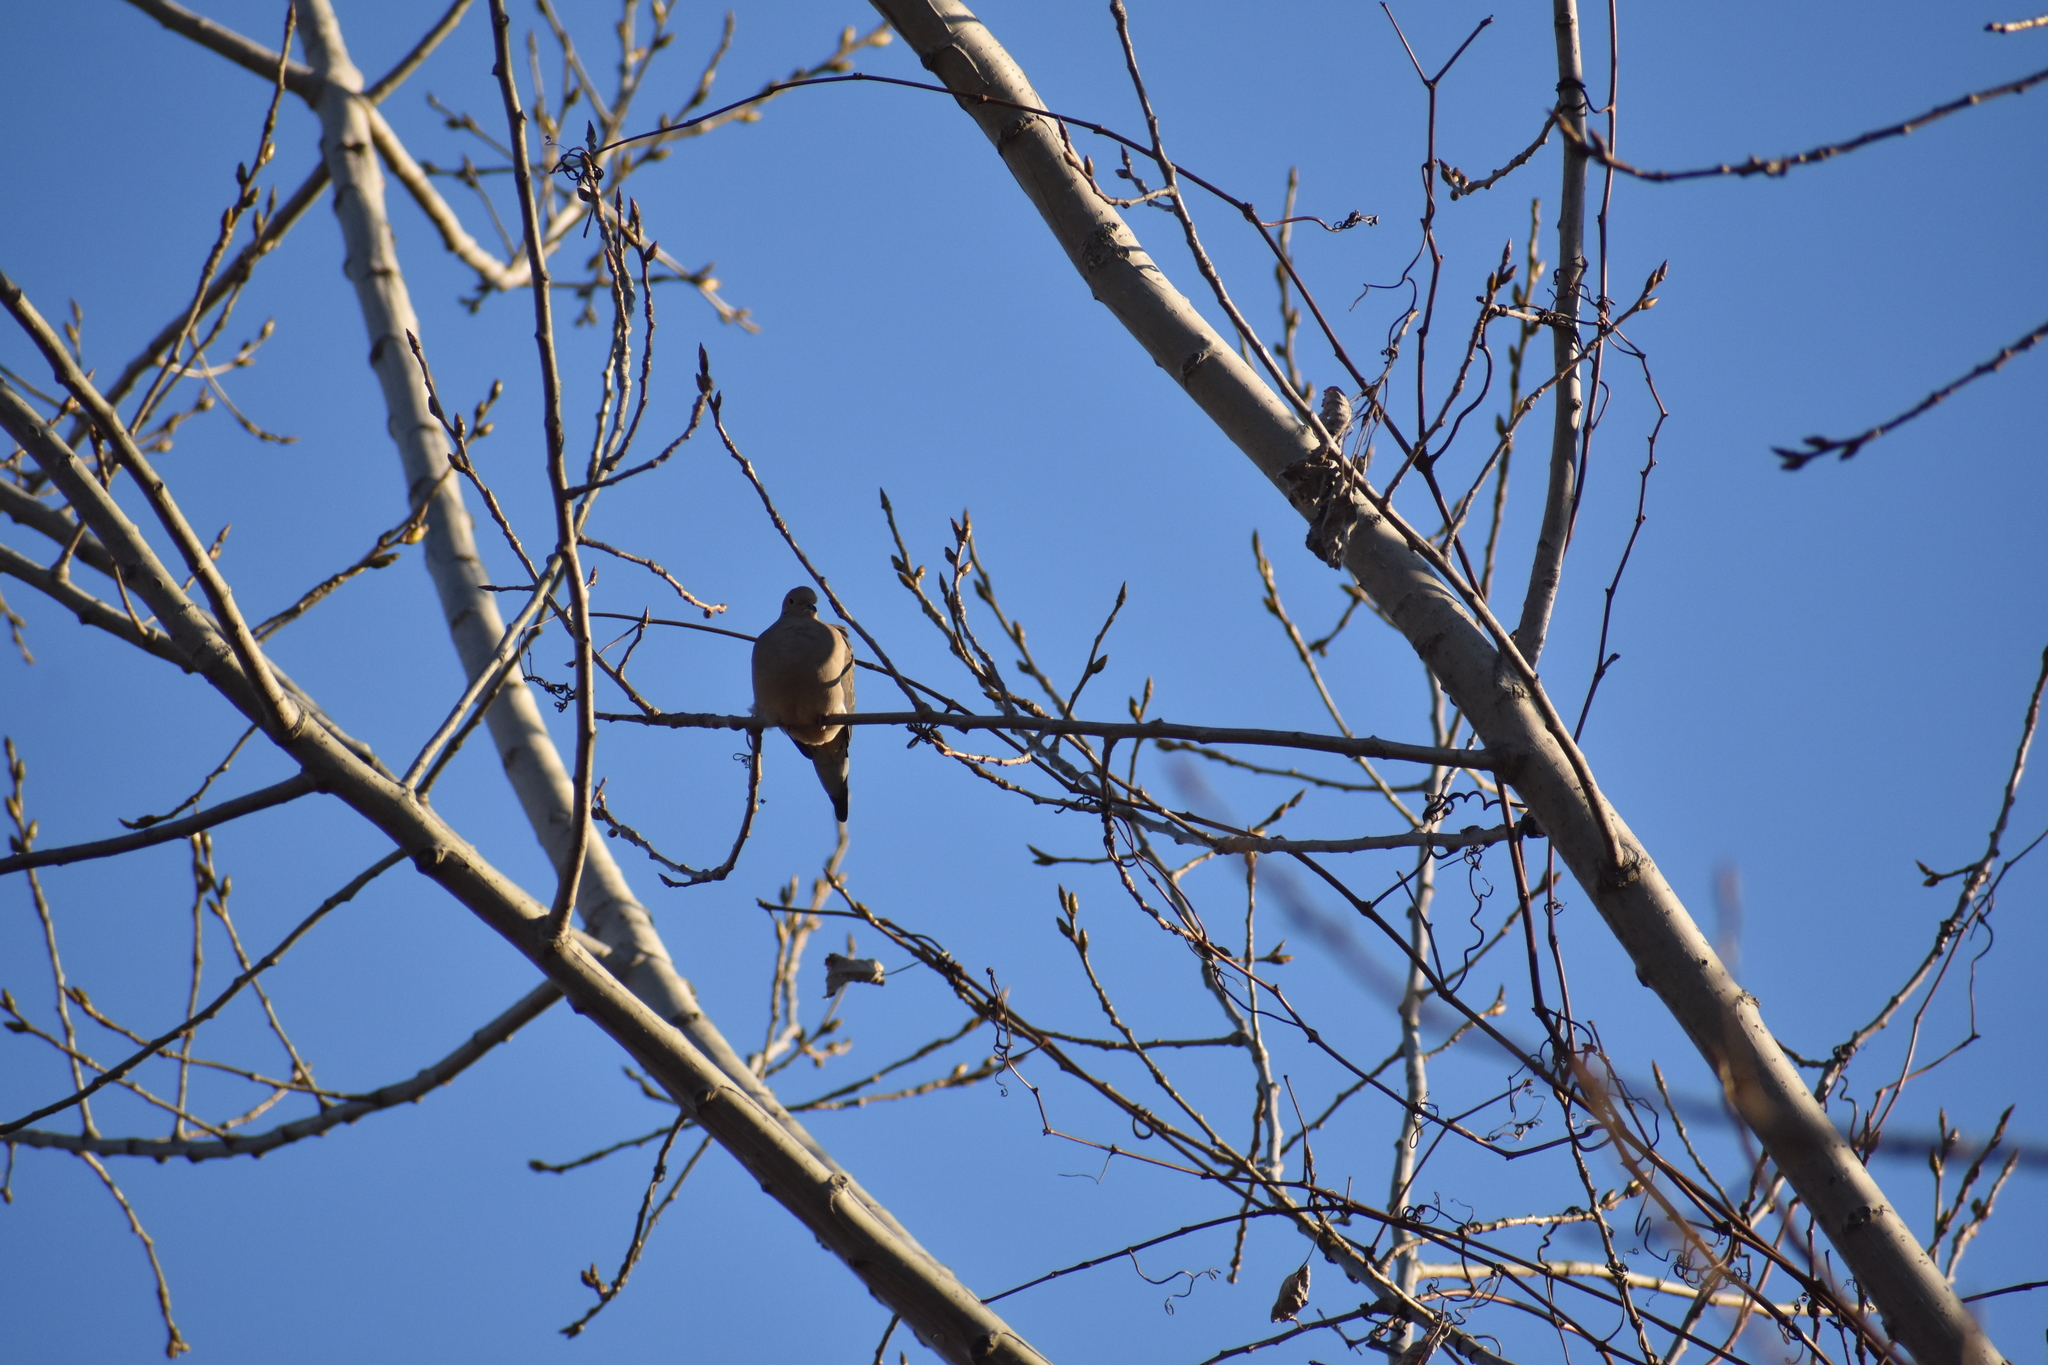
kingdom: Animalia
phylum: Chordata
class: Aves
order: Columbiformes
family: Columbidae
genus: Zenaida
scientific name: Zenaida macroura
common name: Mourning dove
